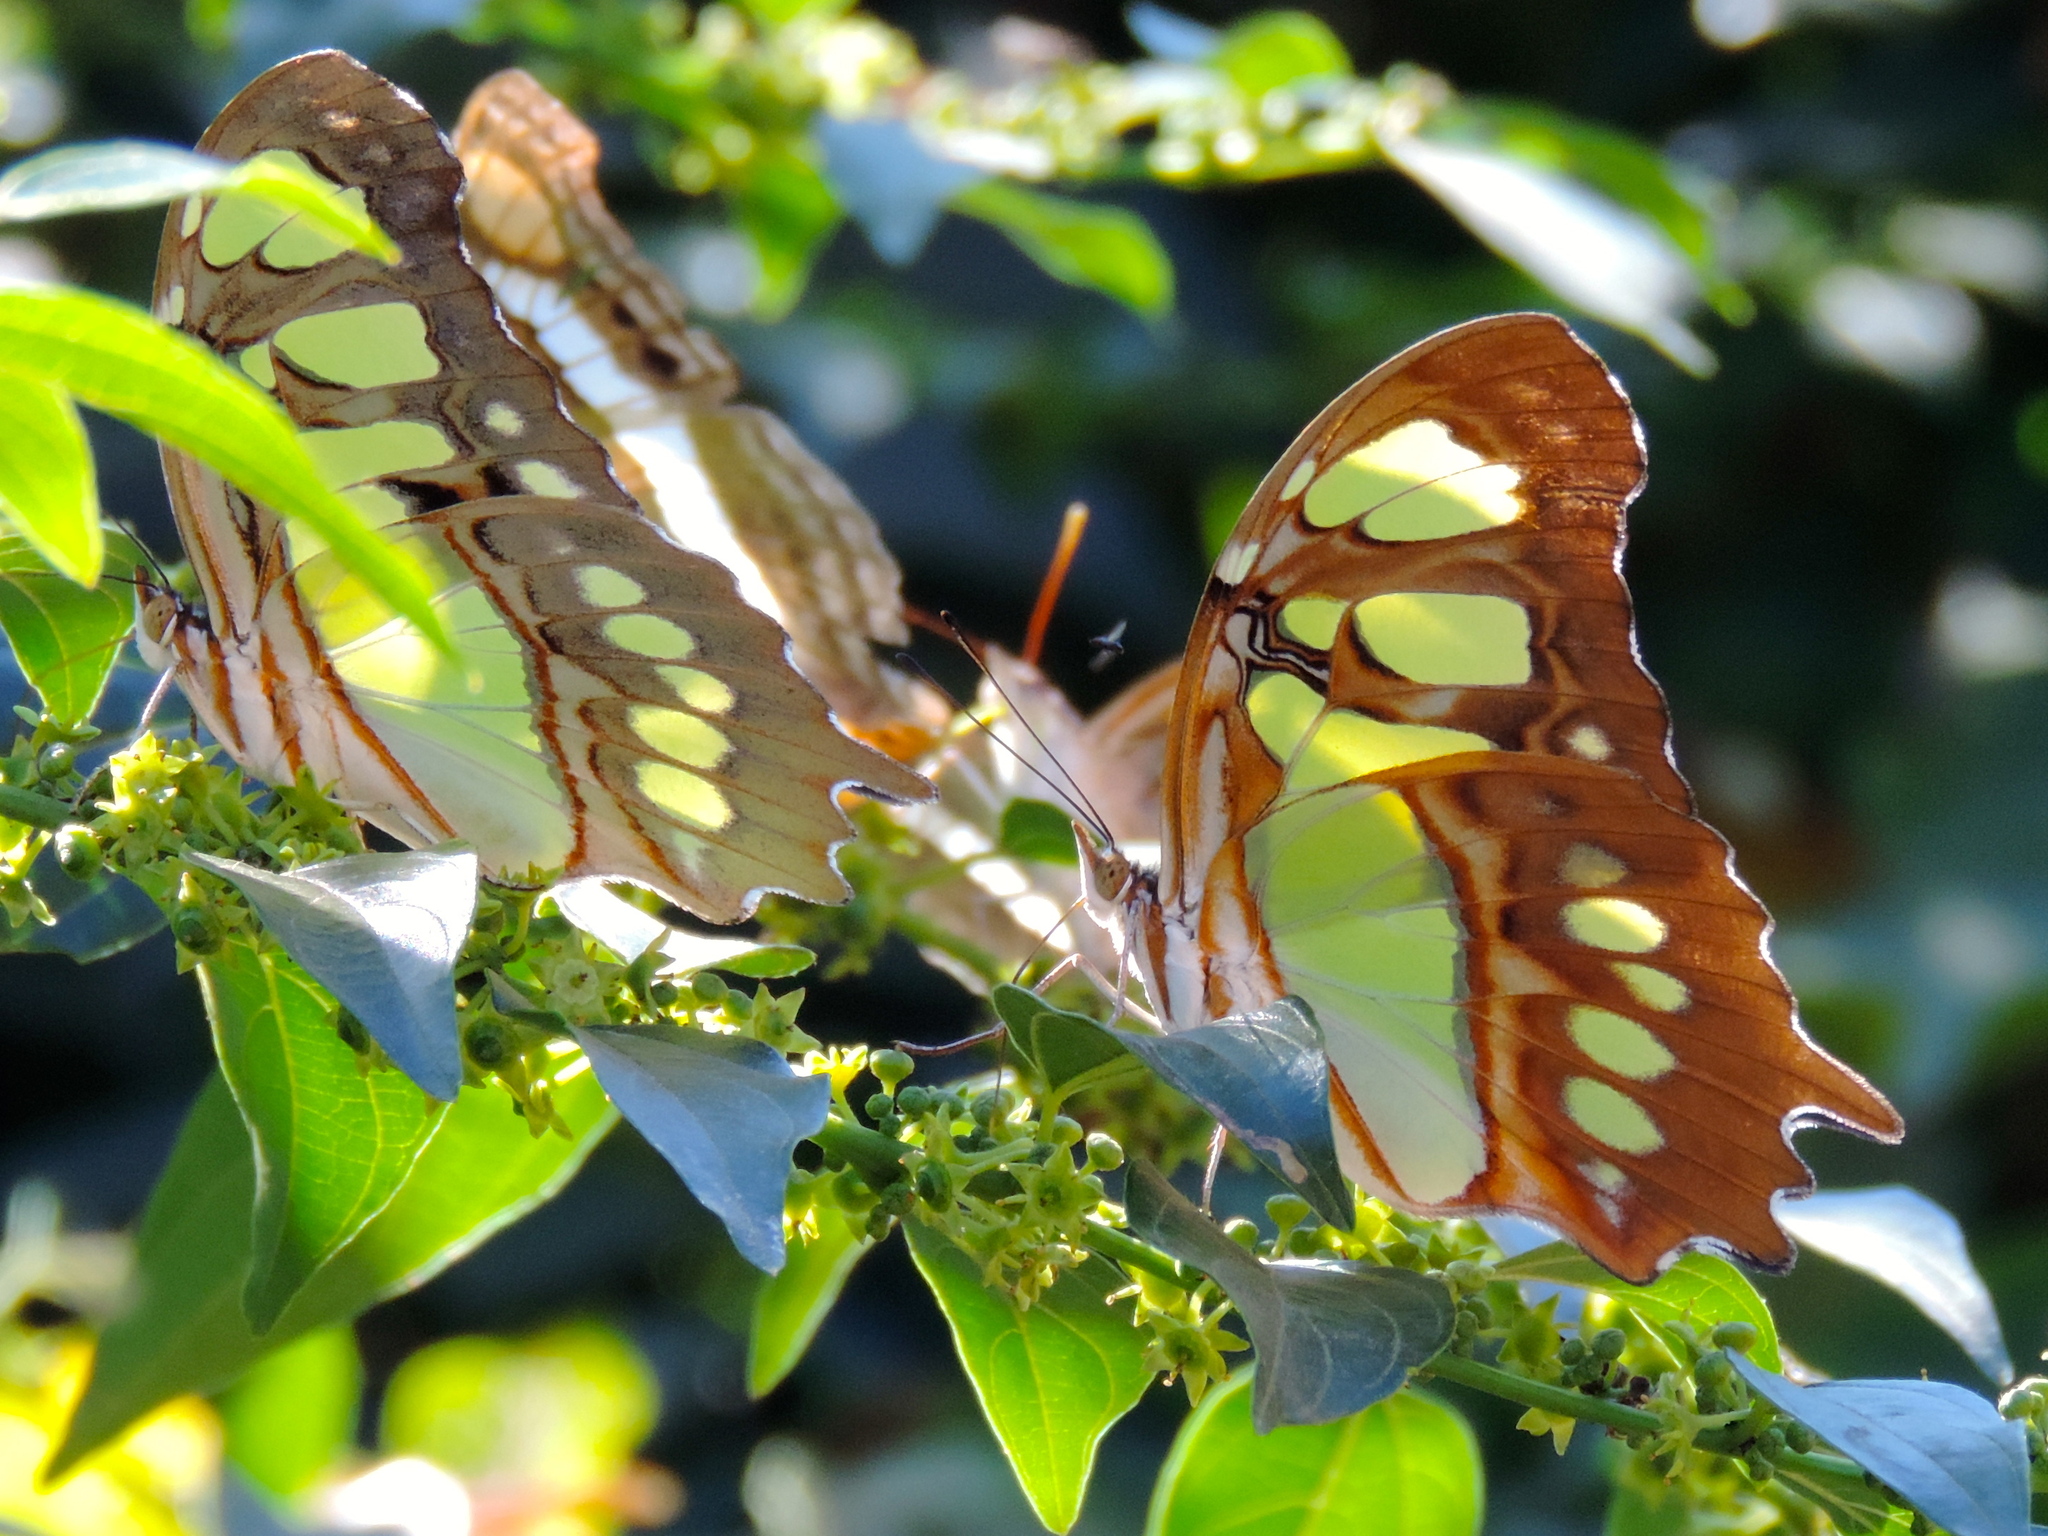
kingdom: Animalia
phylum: Arthropoda
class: Insecta
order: Lepidoptera
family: Nymphalidae
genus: Siproeta
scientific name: Siproeta stelenes
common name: Malachite
